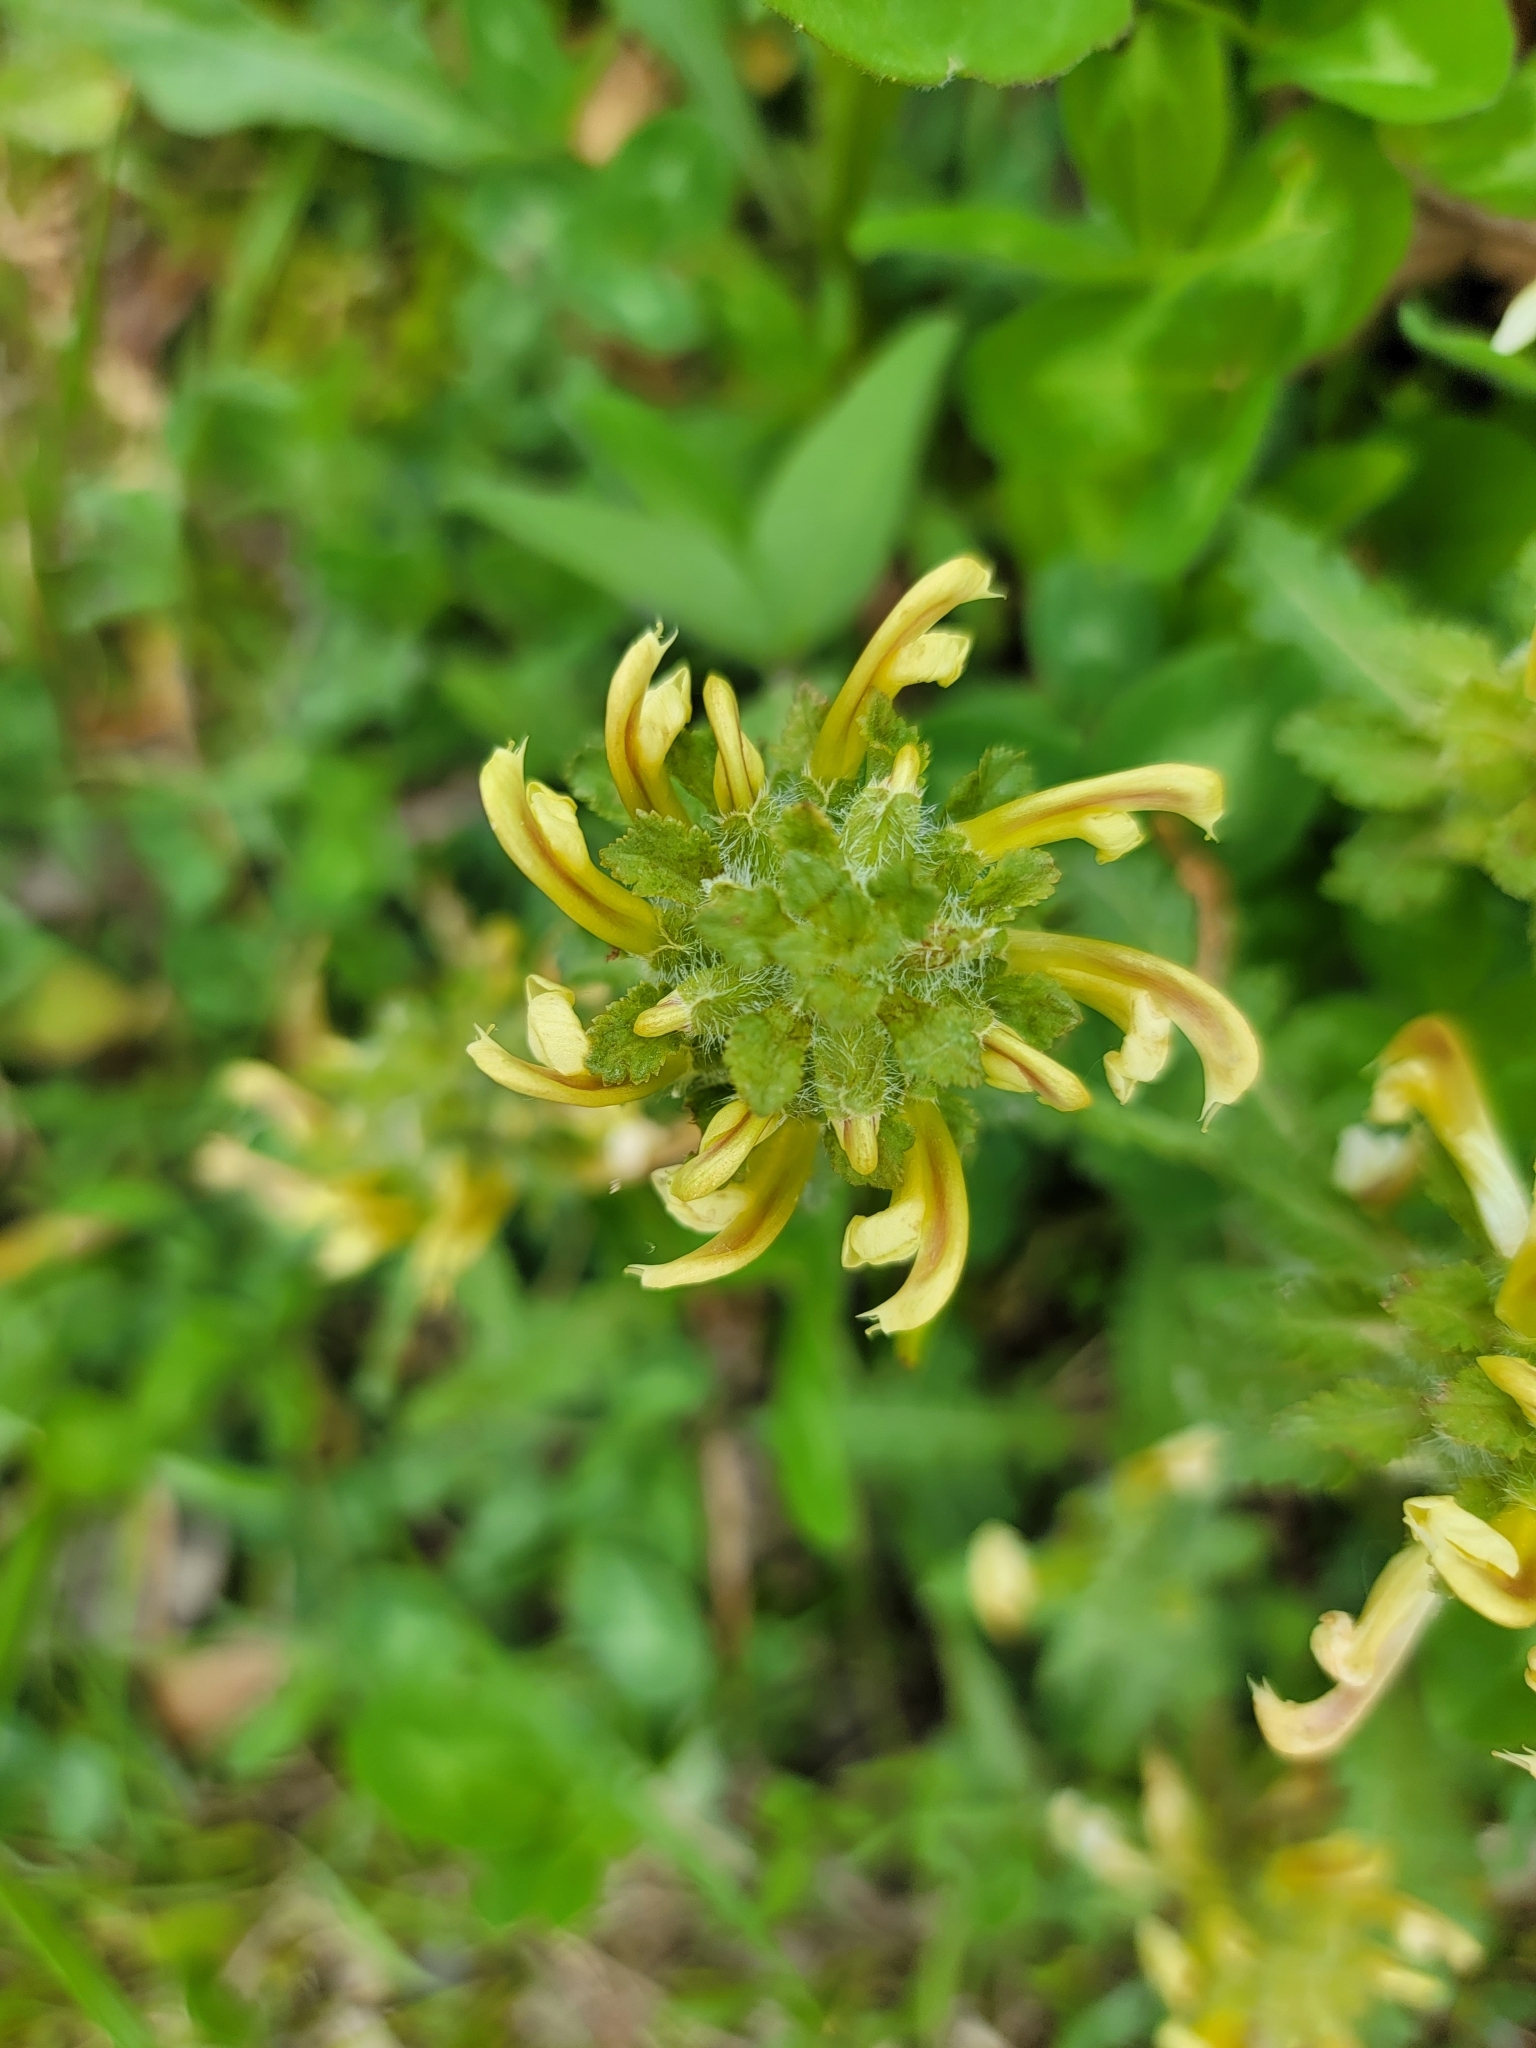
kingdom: Plantae
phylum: Tracheophyta
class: Magnoliopsida
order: Lamiales
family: Orobanchaceae
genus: Pedicularis
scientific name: Pedicularis canadensis
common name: Early lousewort
